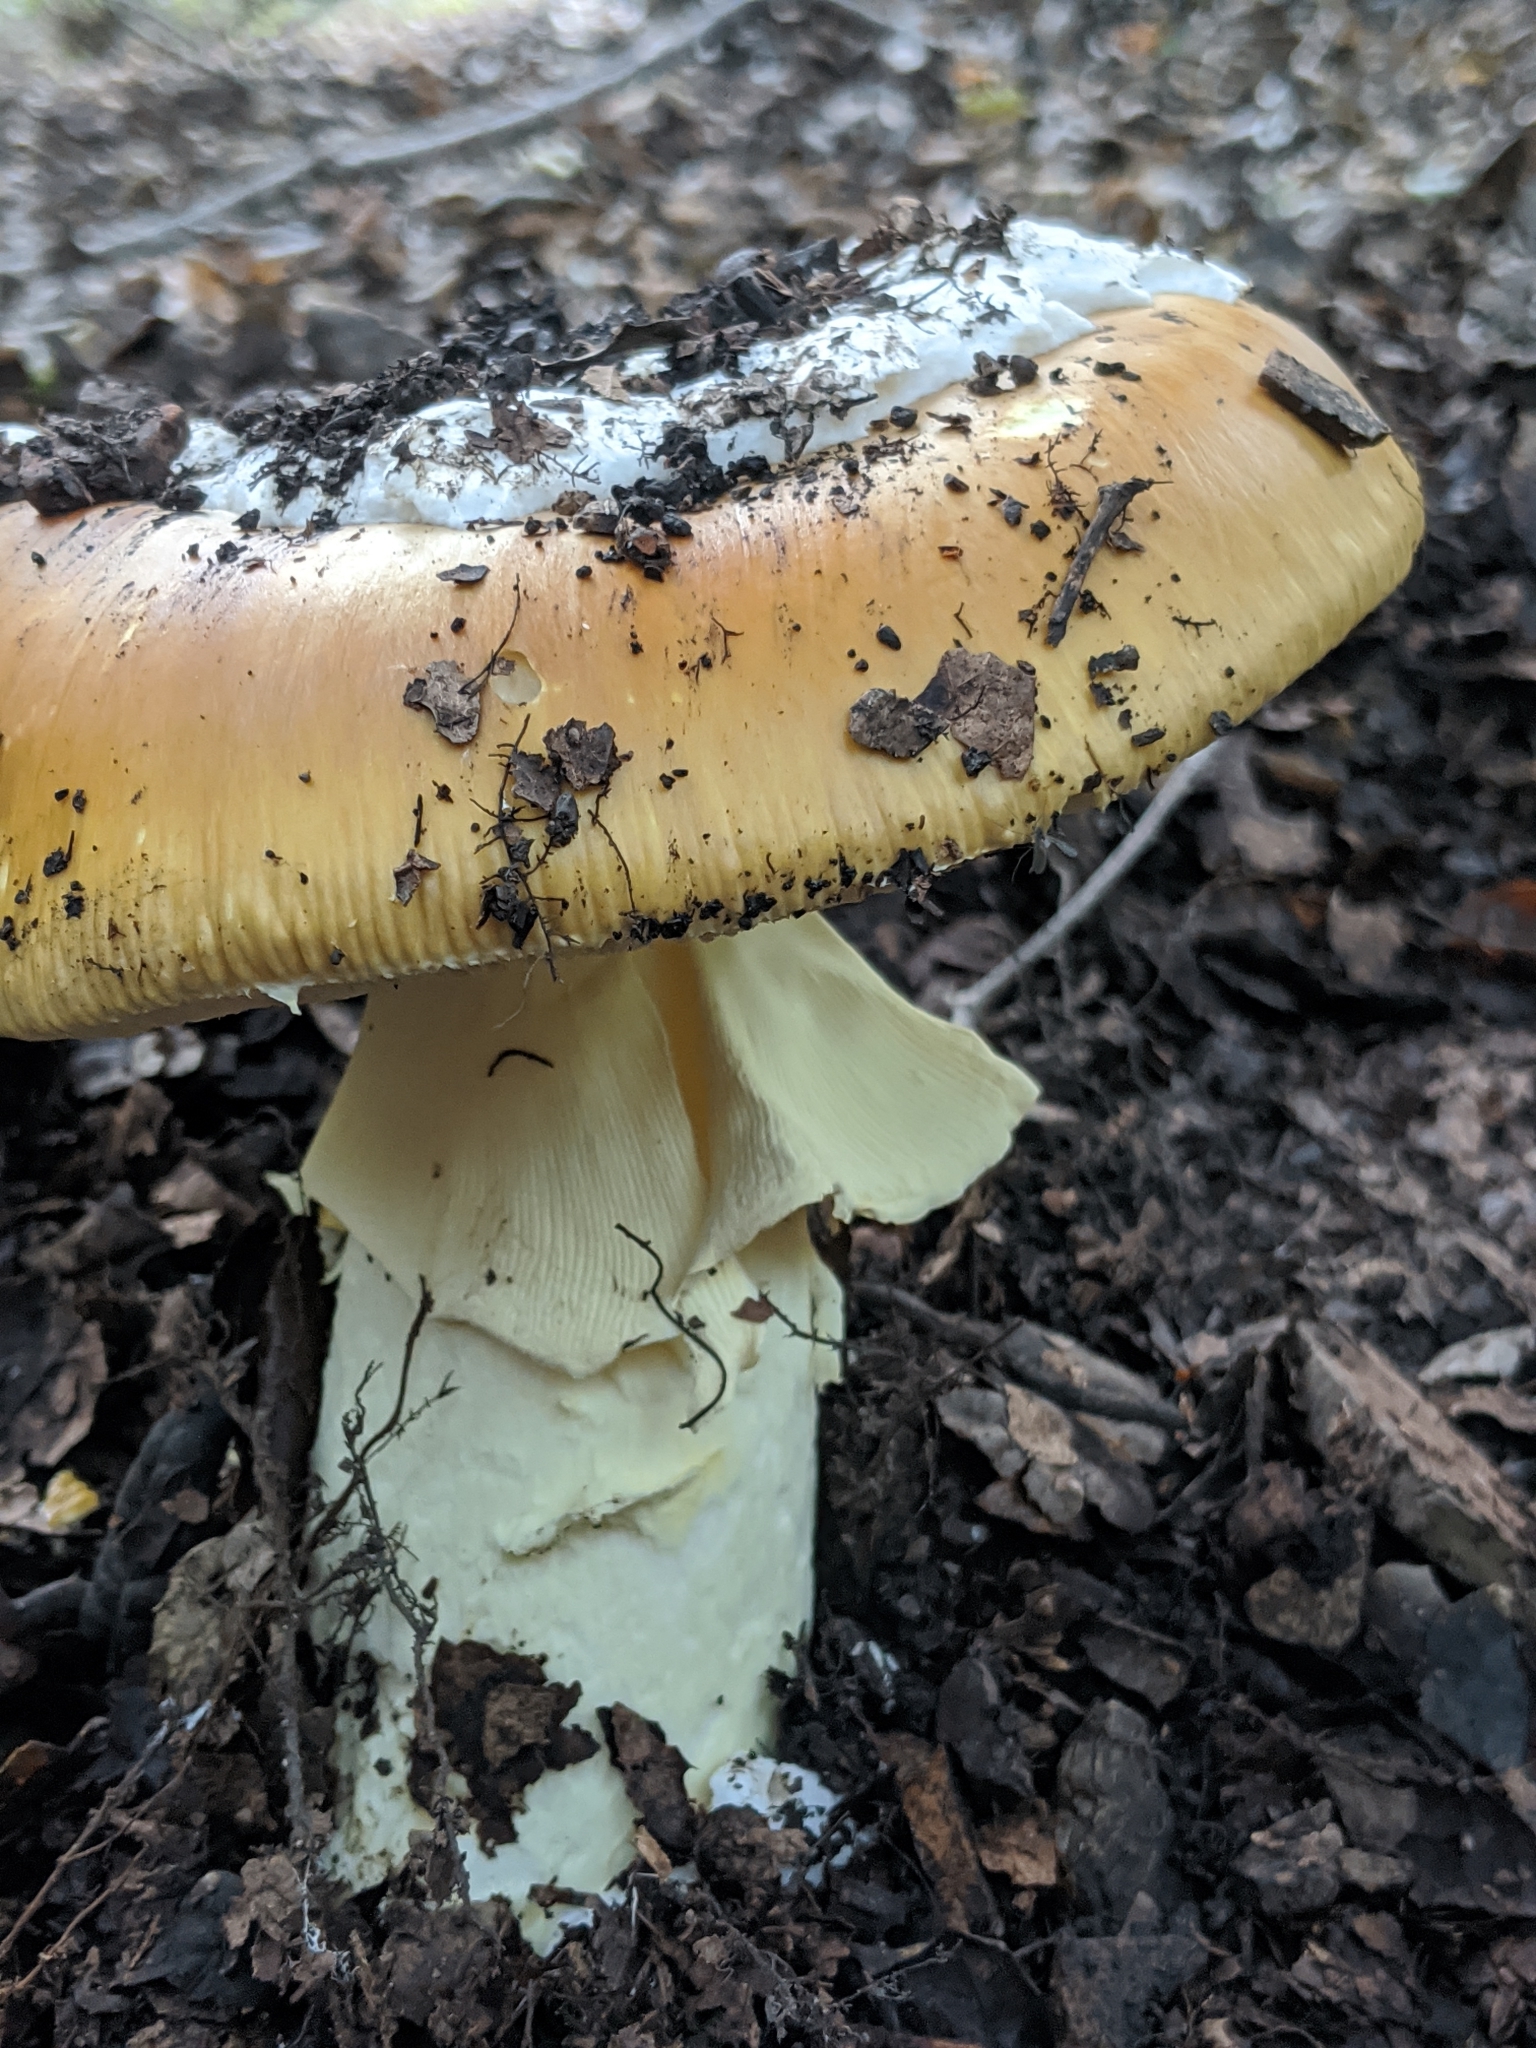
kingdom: Fungi
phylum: Basidiomycota
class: Agaricomycetes
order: Agaricales
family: Amanitaceae
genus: Amanita
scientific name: Amanita calyptroderma
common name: Coccora
